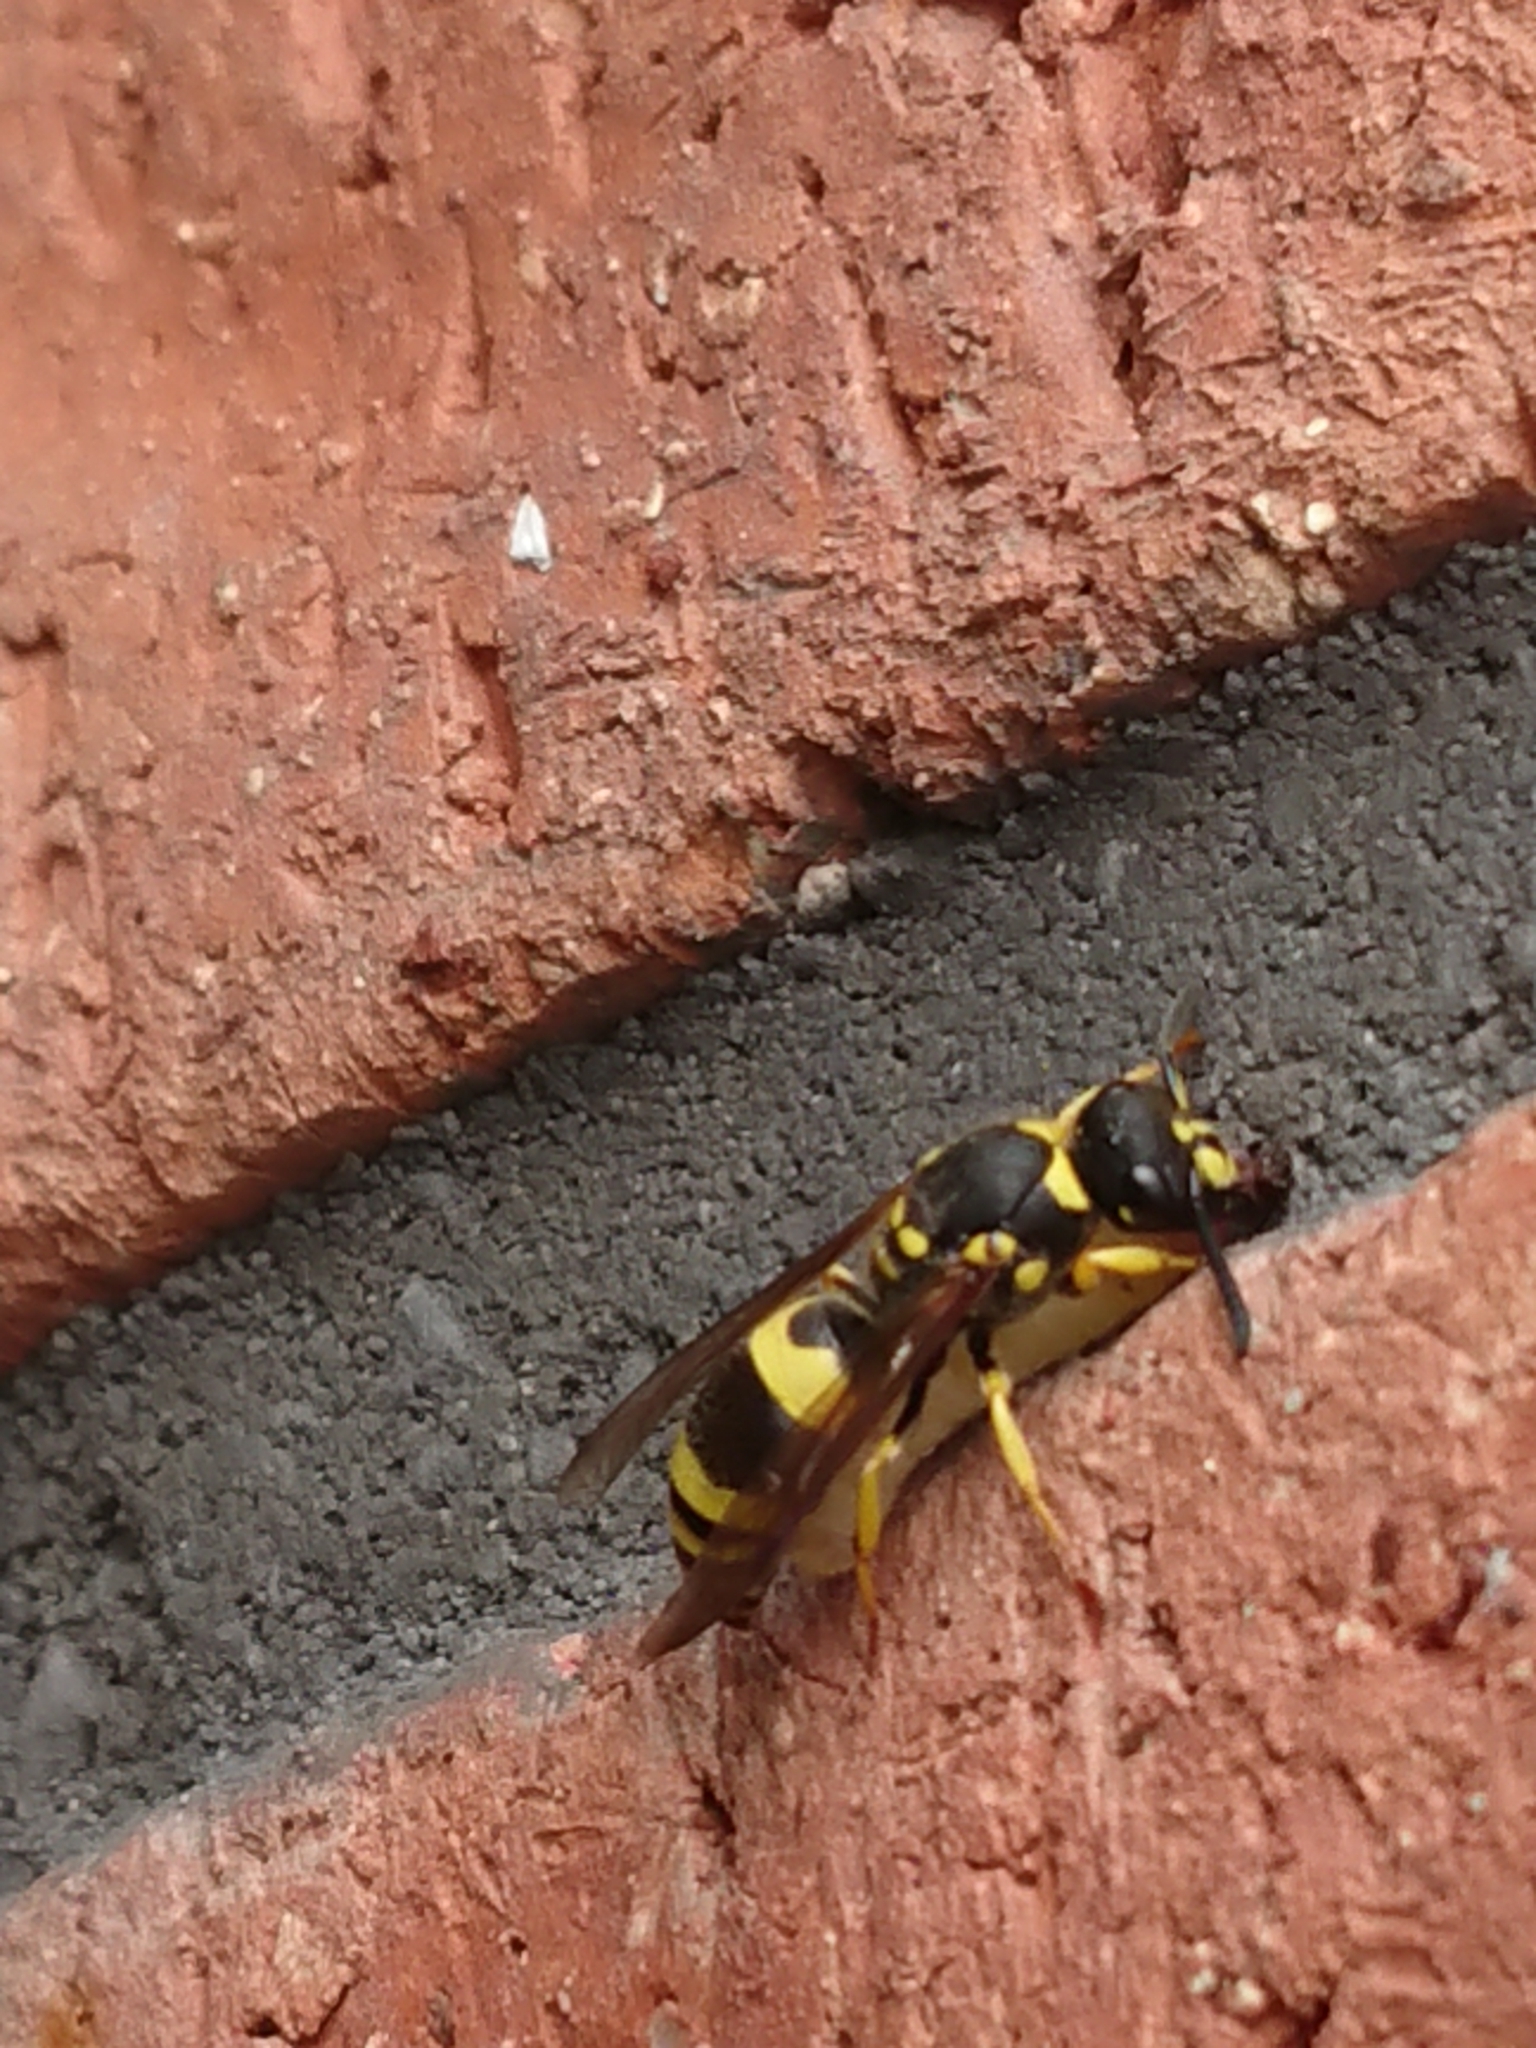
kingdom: Animalia
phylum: Arthropoda
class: Insecta
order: Hymenoptera
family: Vespidae
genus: Ancistrocerus
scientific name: Ancistrocerus gazella
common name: European tube wasp
